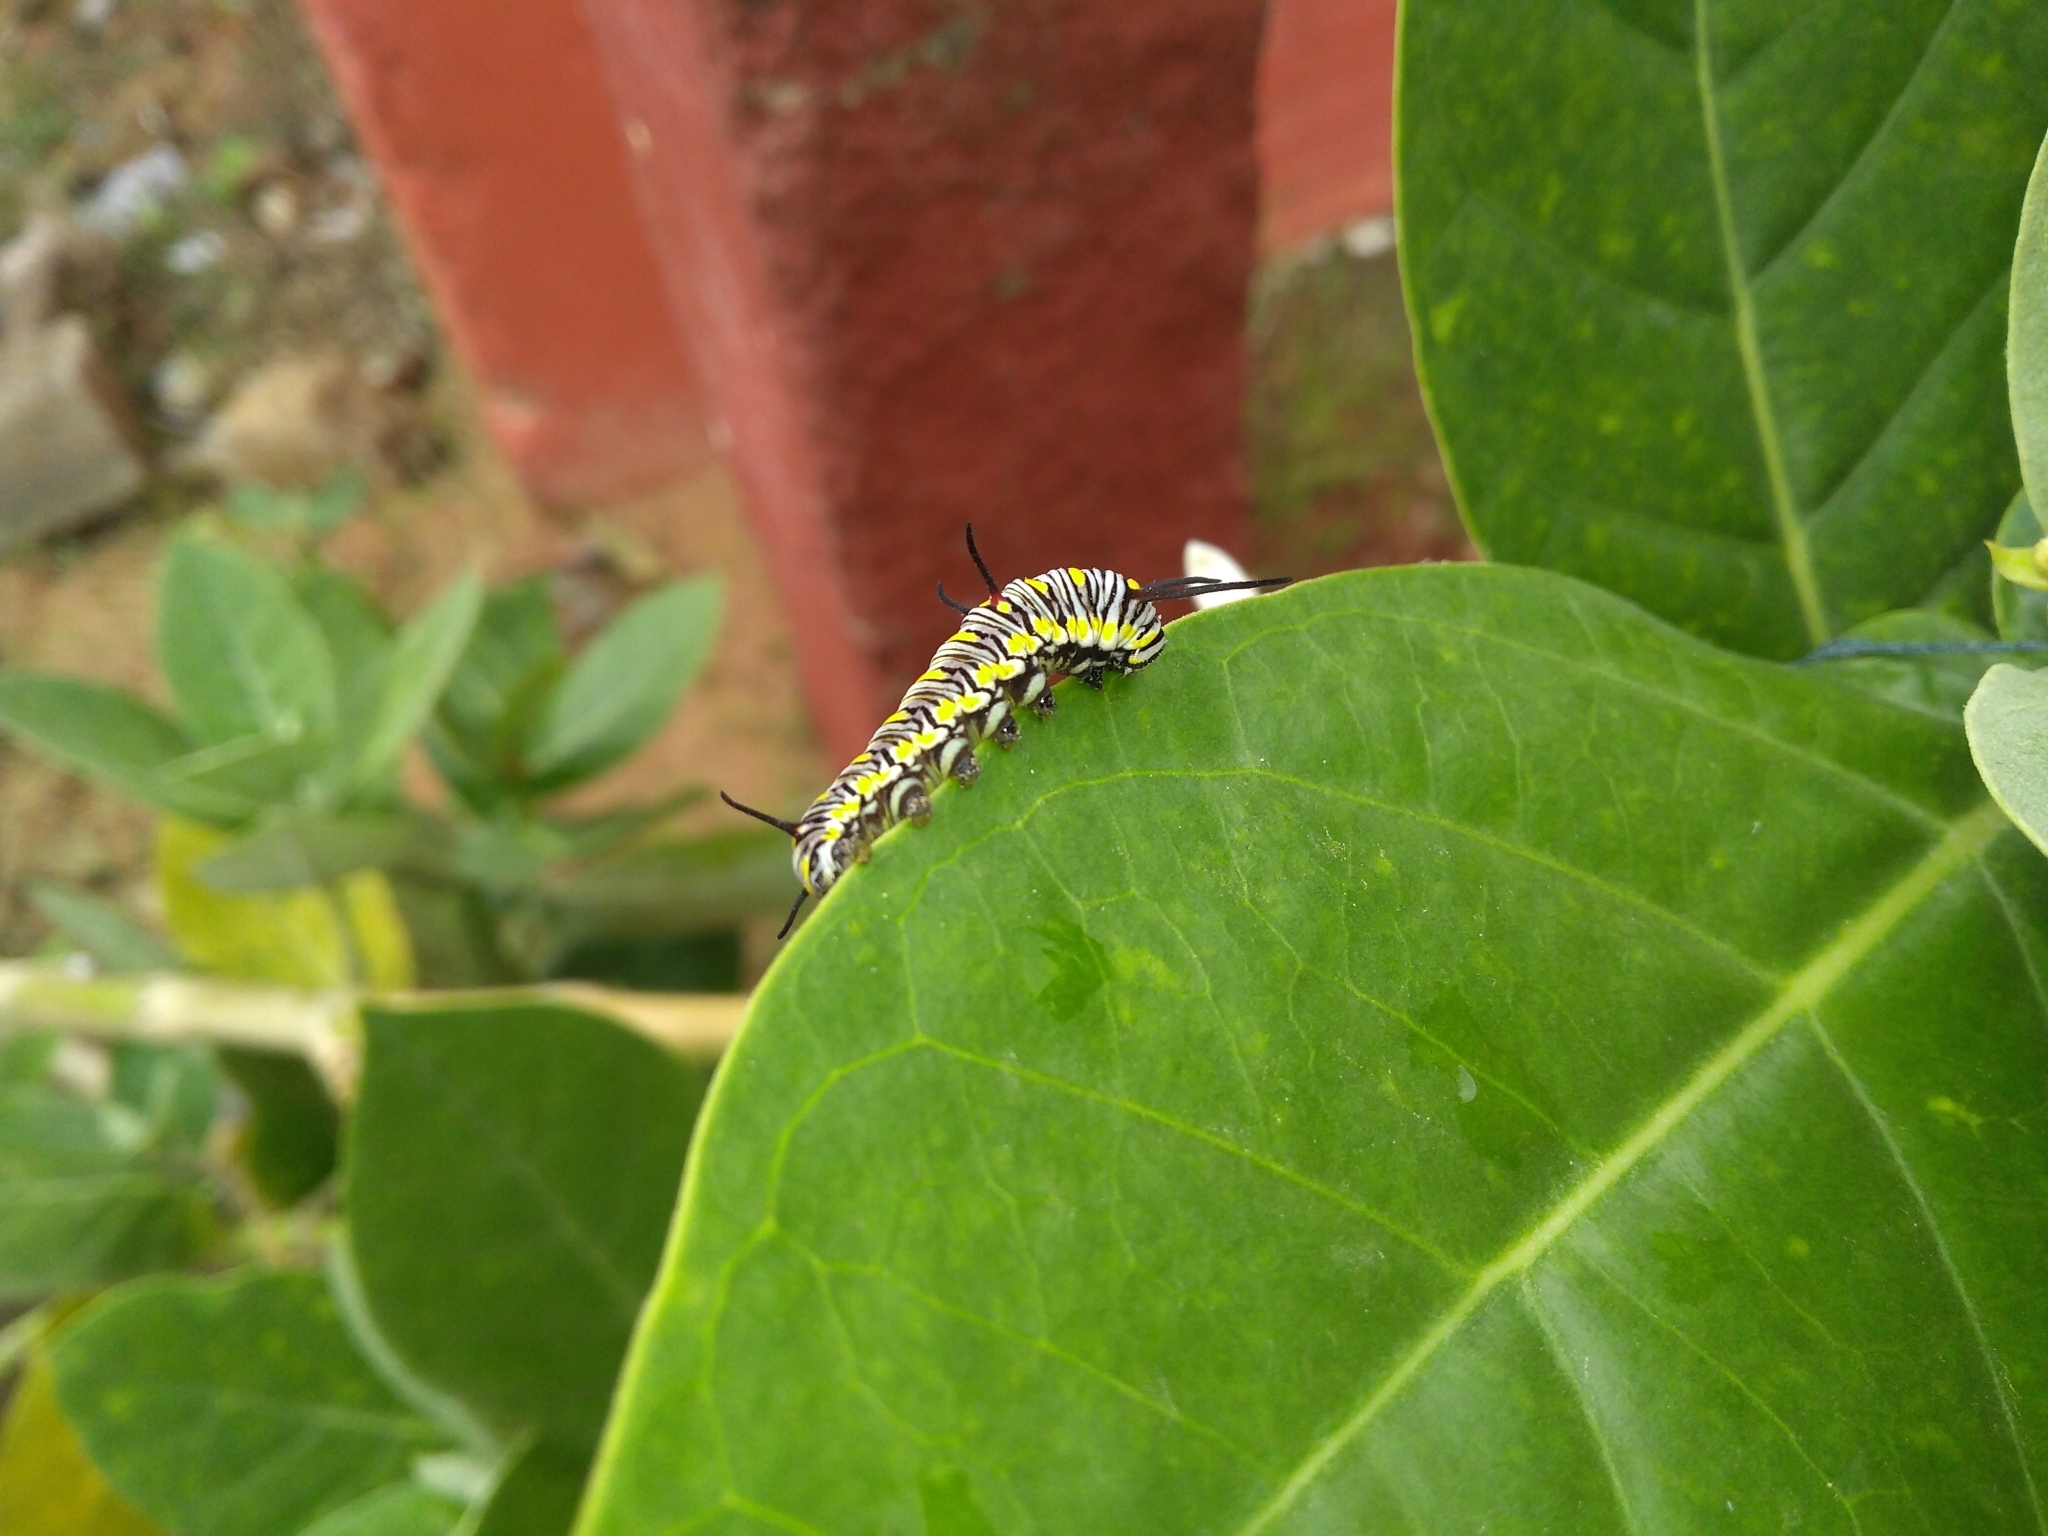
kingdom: Animalia
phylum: Arthropoda
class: Insecta
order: Lepidoptera
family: Nymphalidae
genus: Danaus
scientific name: Danaus chrysippus
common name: Plain tiger
